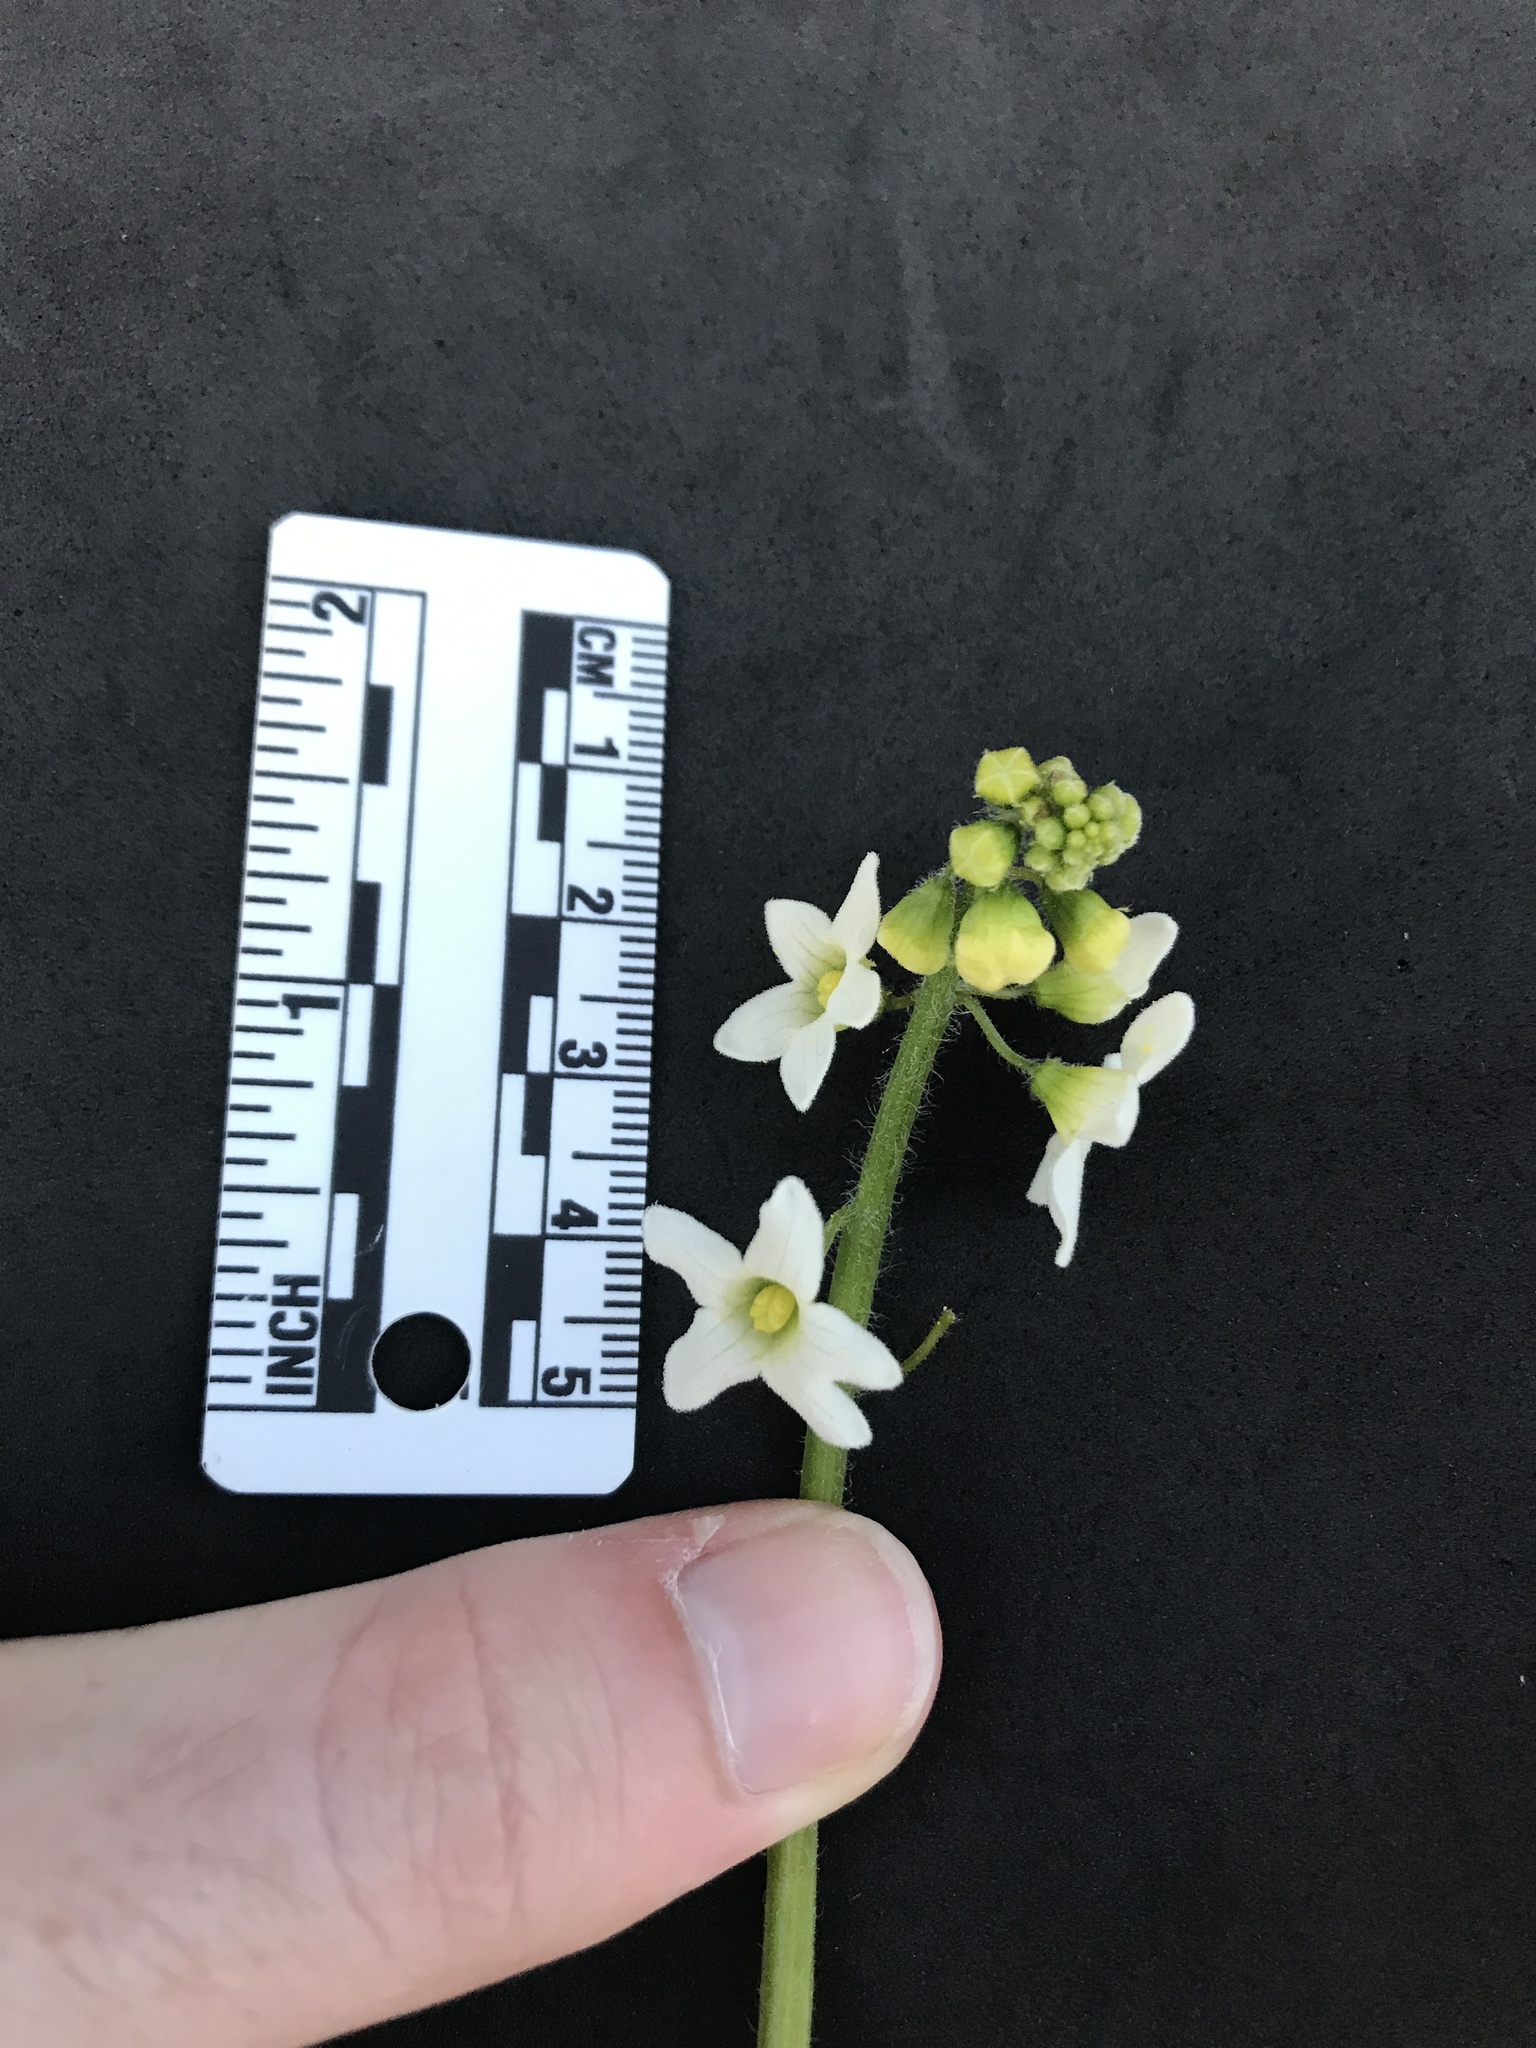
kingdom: Plantae
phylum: Tracheophyta
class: Magnoliopsida
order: Cucurbitales
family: Cucurbitaceae
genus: Marah
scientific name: Marah oregana
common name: Coastal manroot
